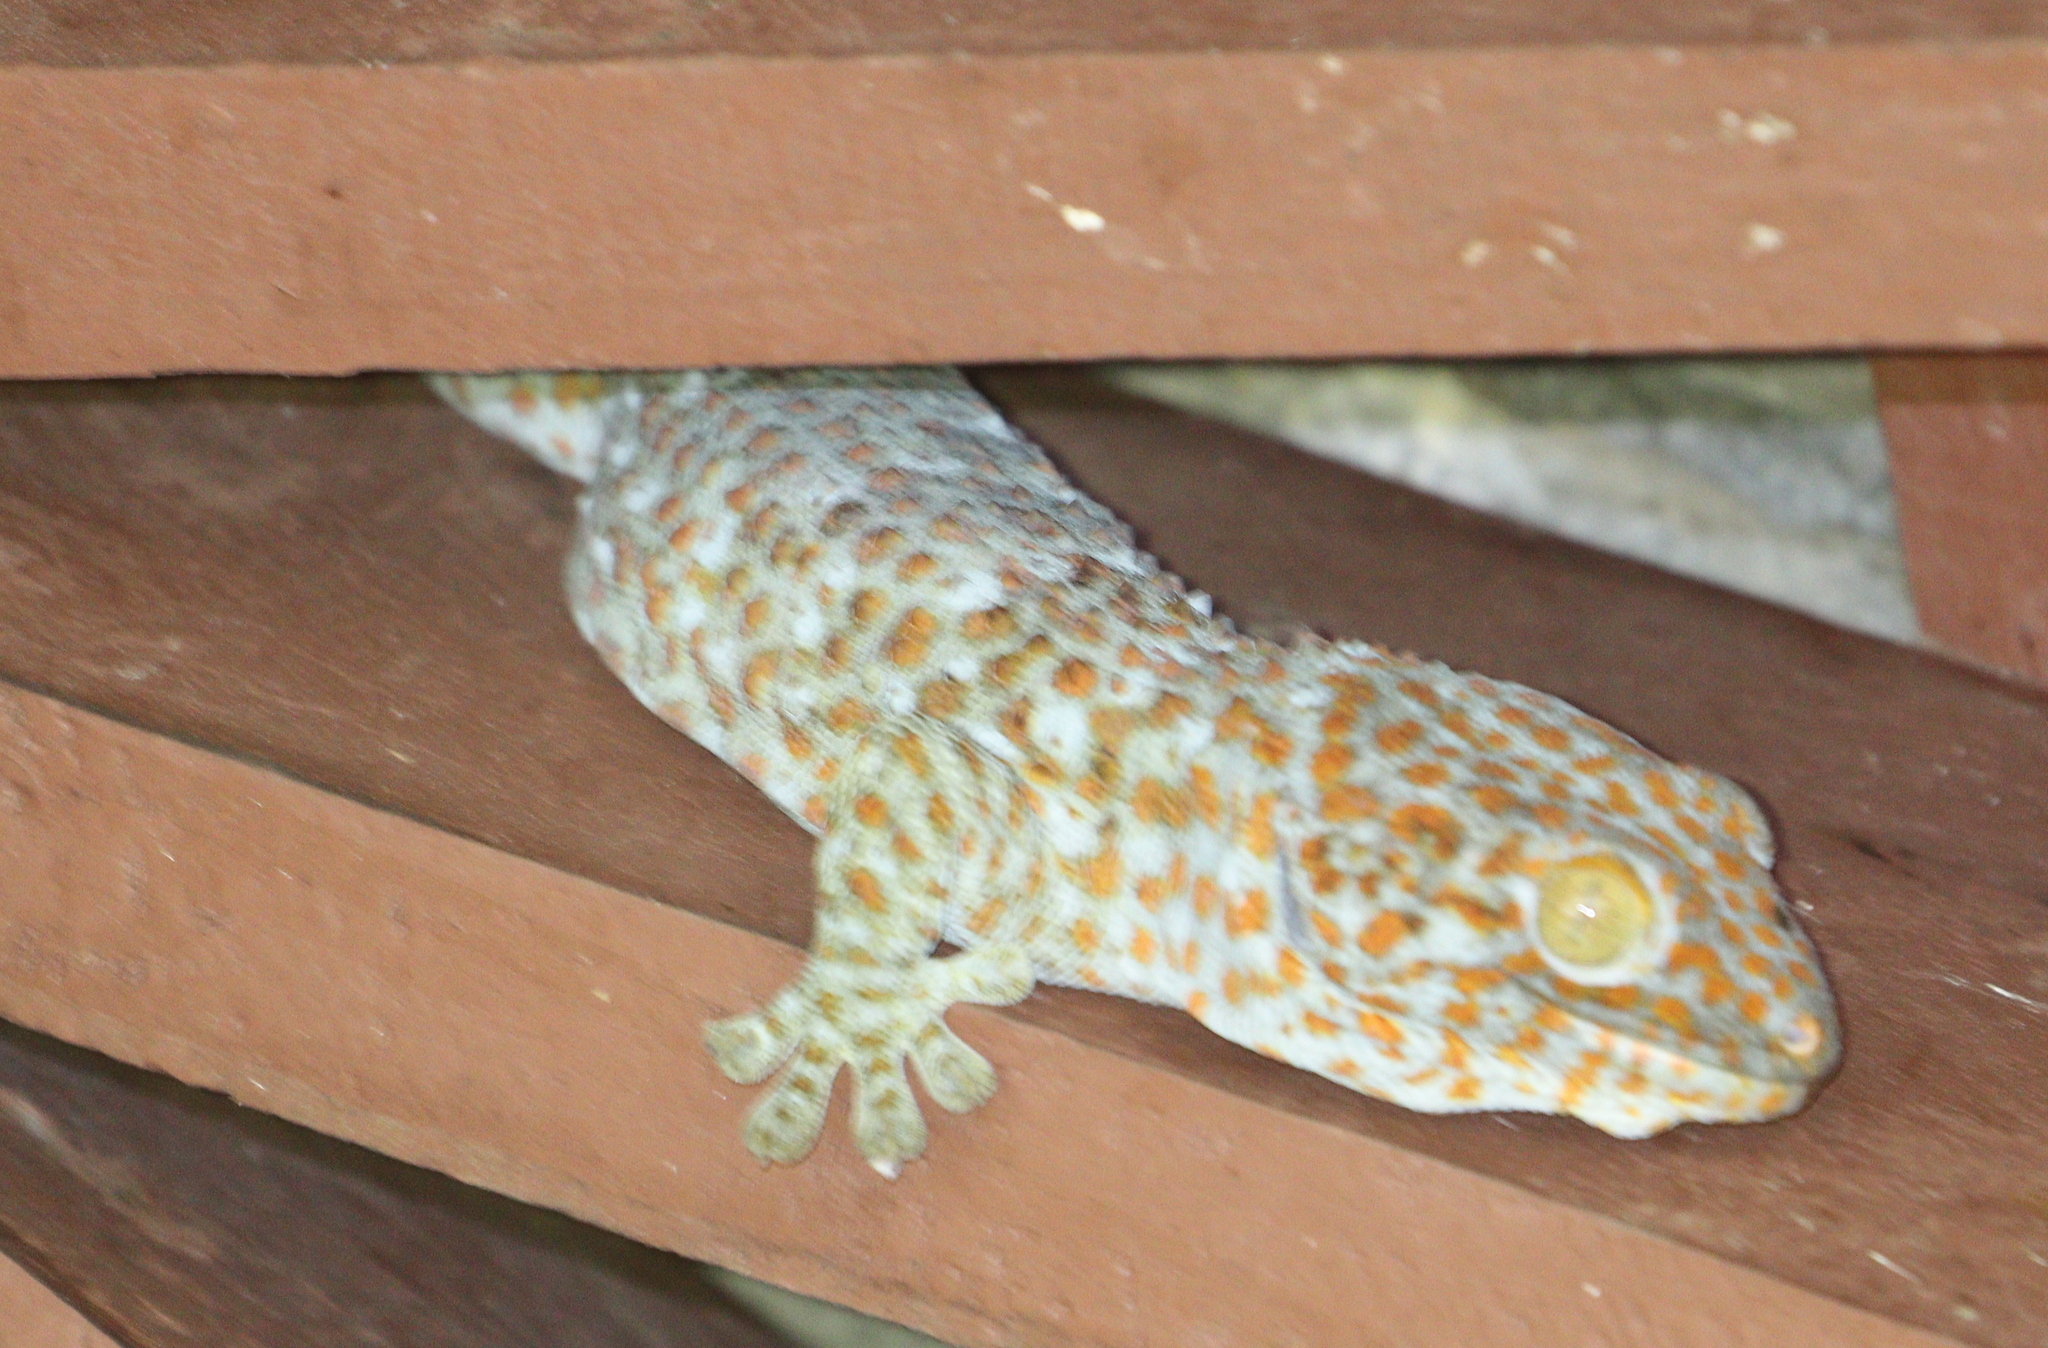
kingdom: Animalia
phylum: Chordata
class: Squamata
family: Gekkonidae
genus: Gekko
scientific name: Gekko gecko
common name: Tokay gecko
